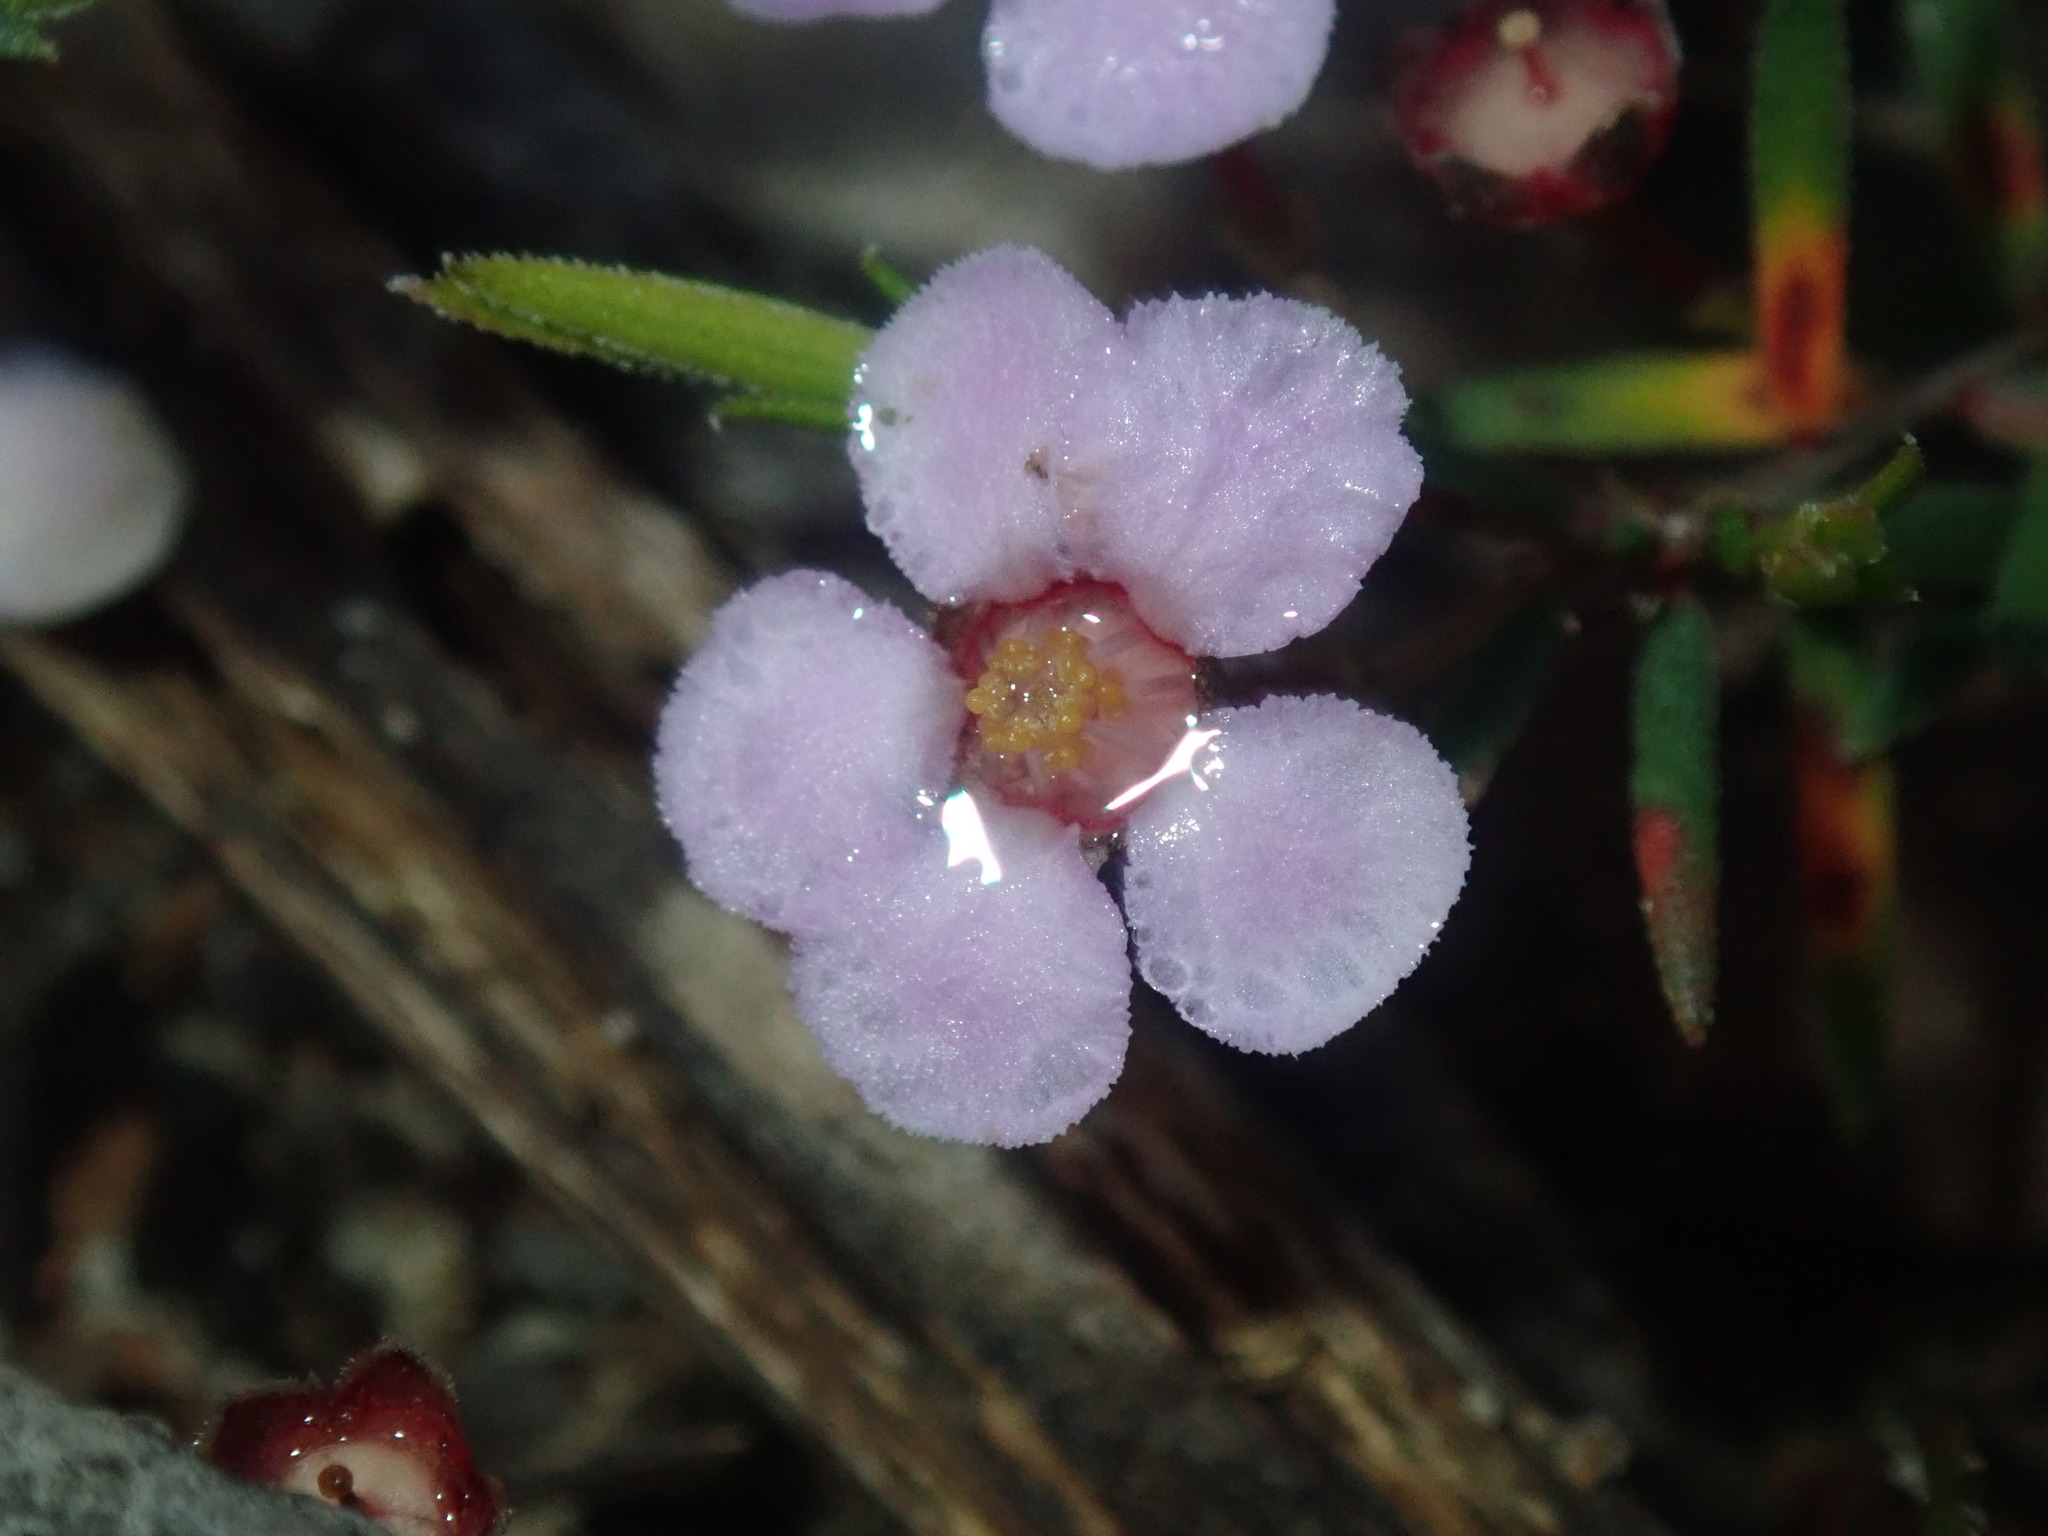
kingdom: Plantae
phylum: Tracheophyta
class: Magnoliopsida
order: Myrtales
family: Myrtaceae
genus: Euryomyrtus
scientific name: Euryomyrtus ramosissima
